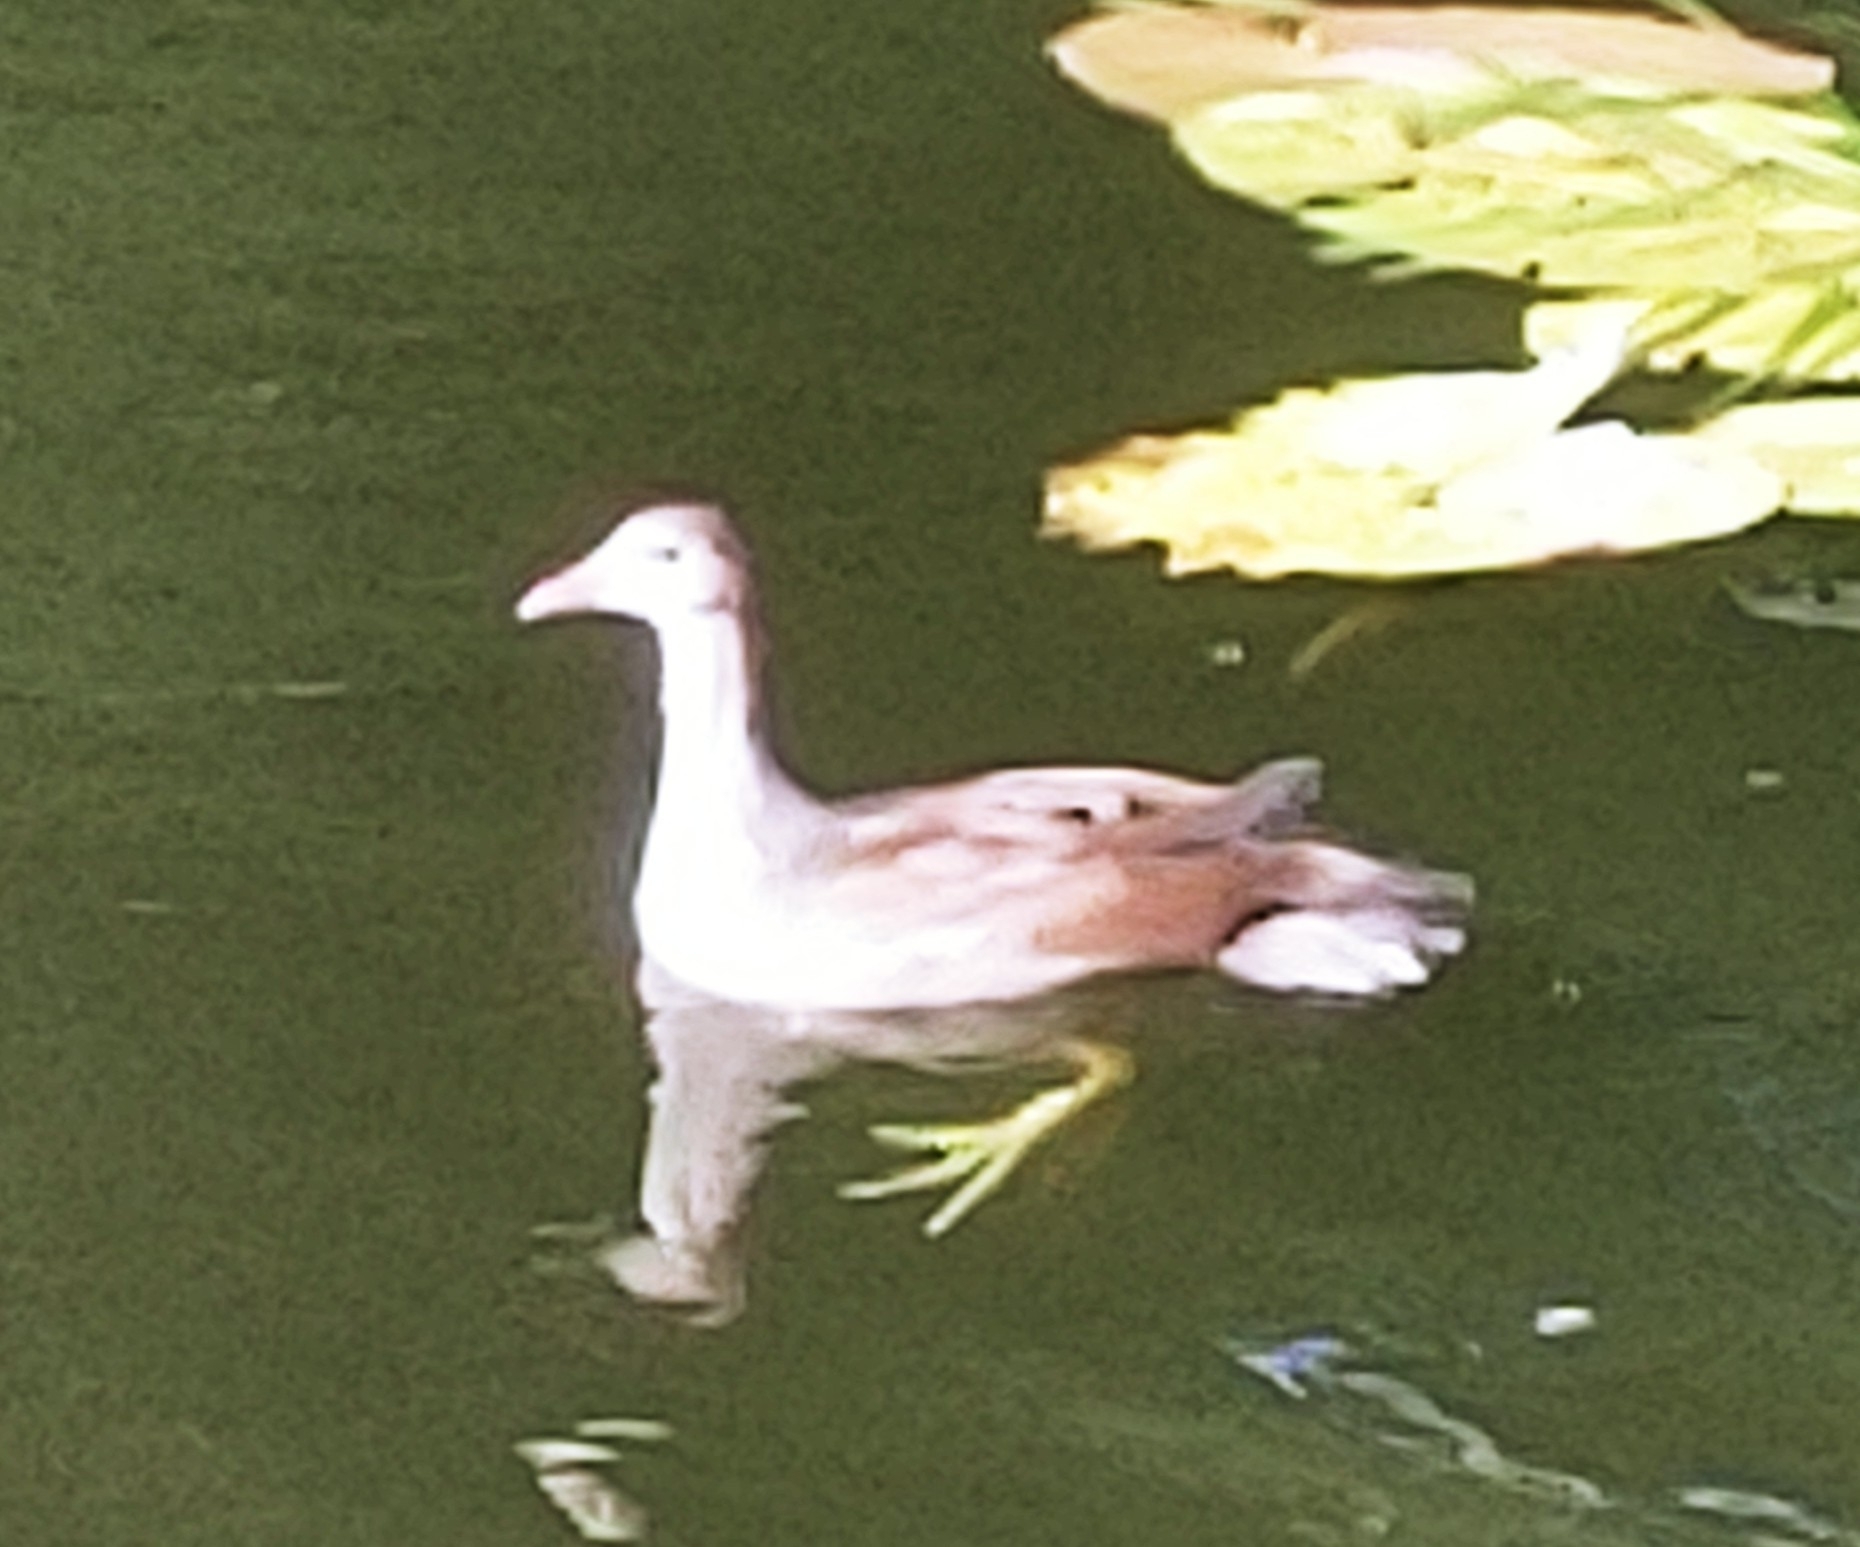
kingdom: Animalia
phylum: Chordata
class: Aves
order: Gruiformes
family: Rallidae
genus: Gallinula
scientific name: Gallinula chloropus
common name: Common moorhen
